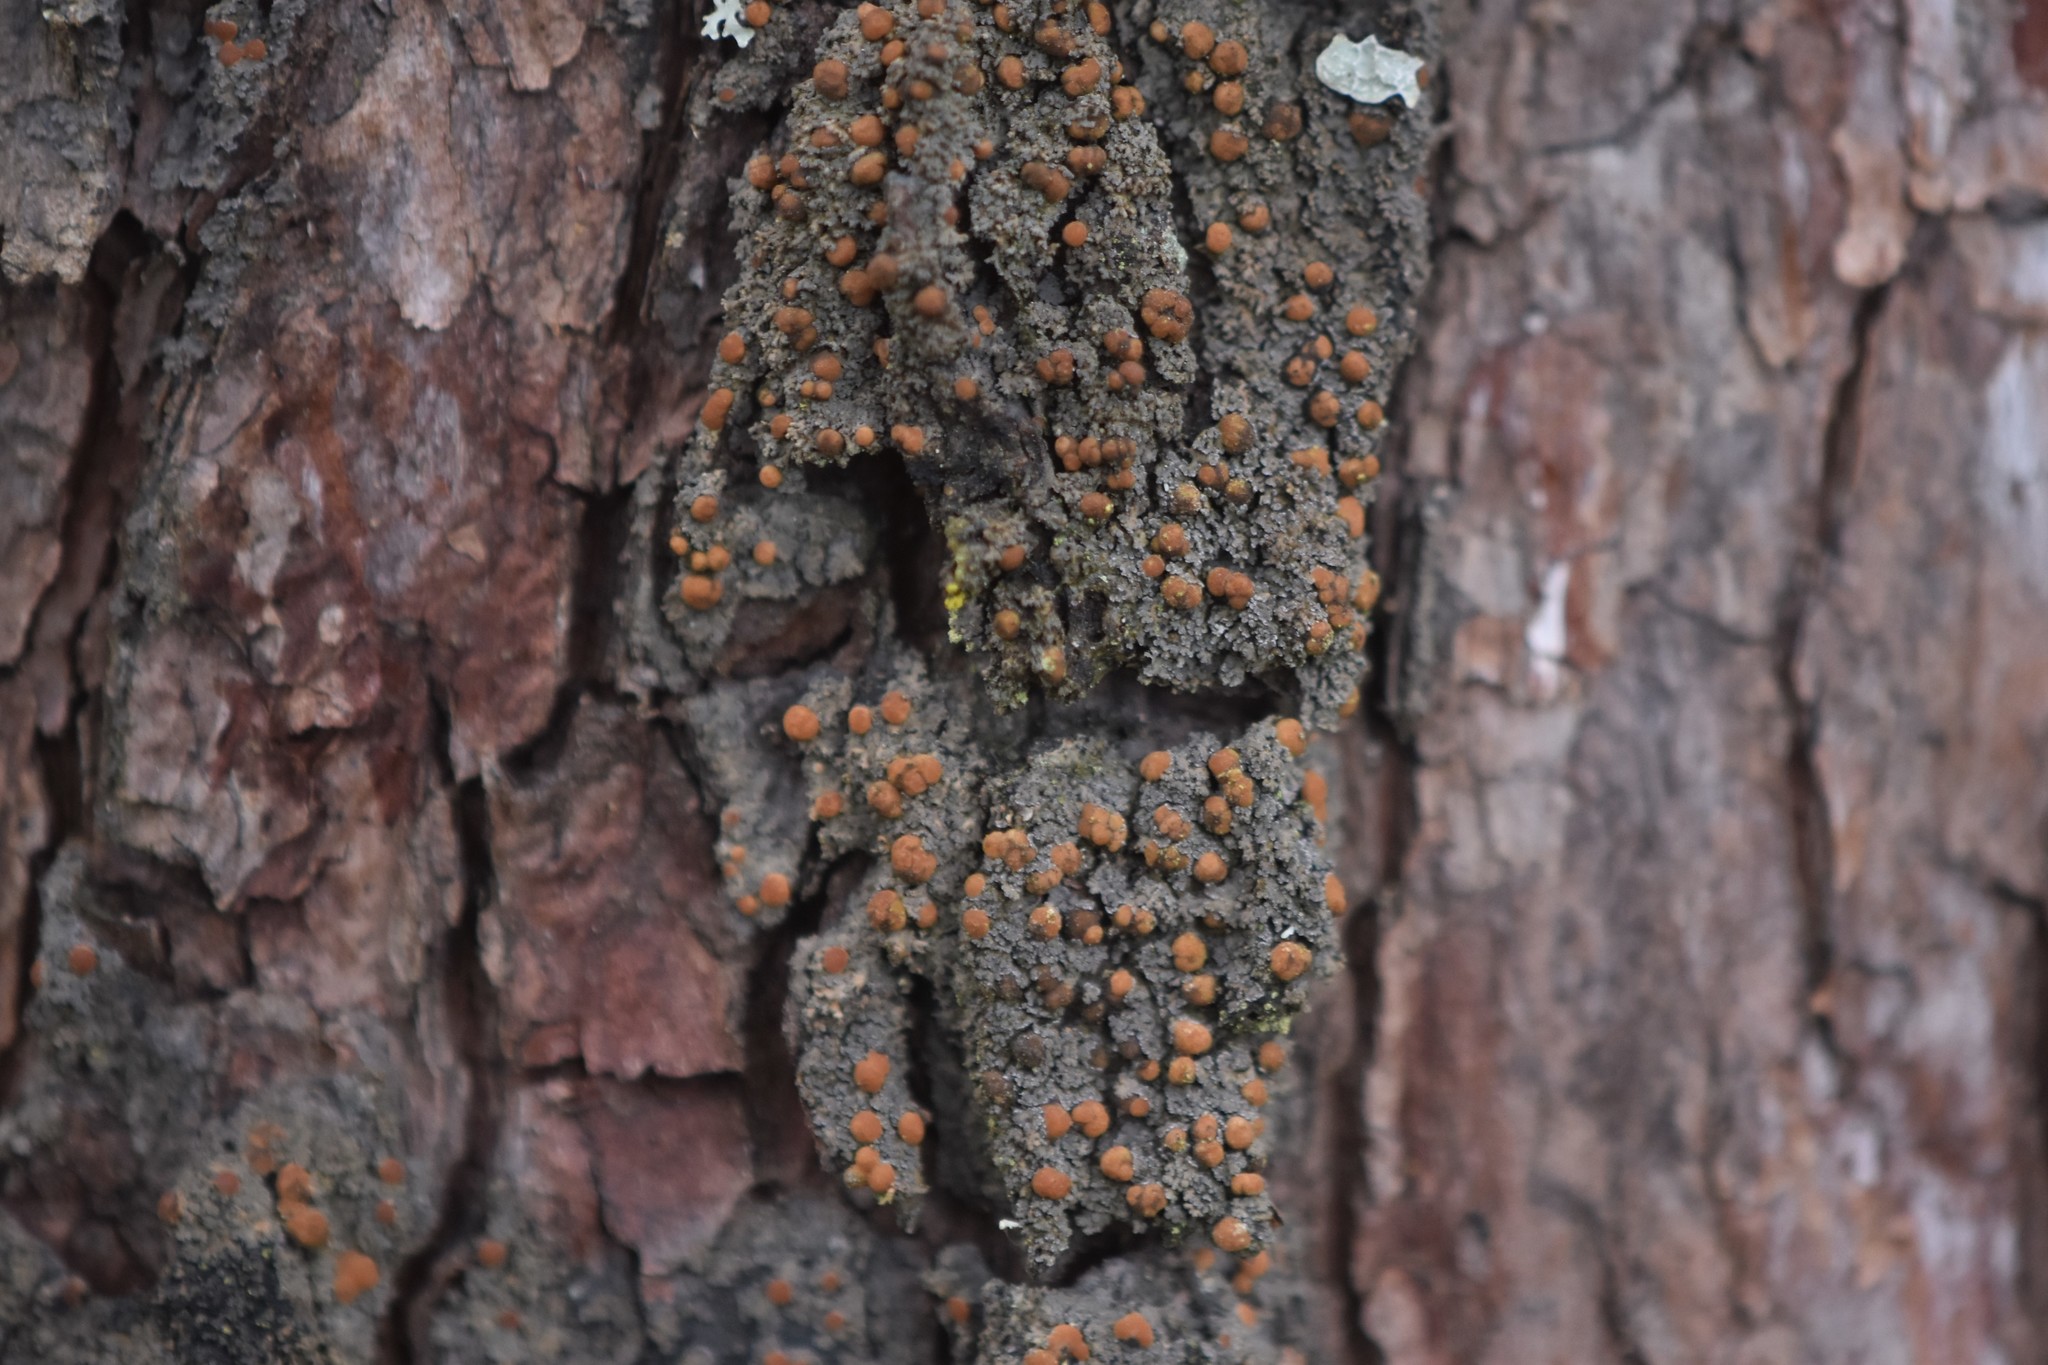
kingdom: Fungi
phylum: Ascomycota
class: Lecanoromycetes
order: Peltigerales
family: Vahliellaceae
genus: Vahliella
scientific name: Vahliella saubinetii
